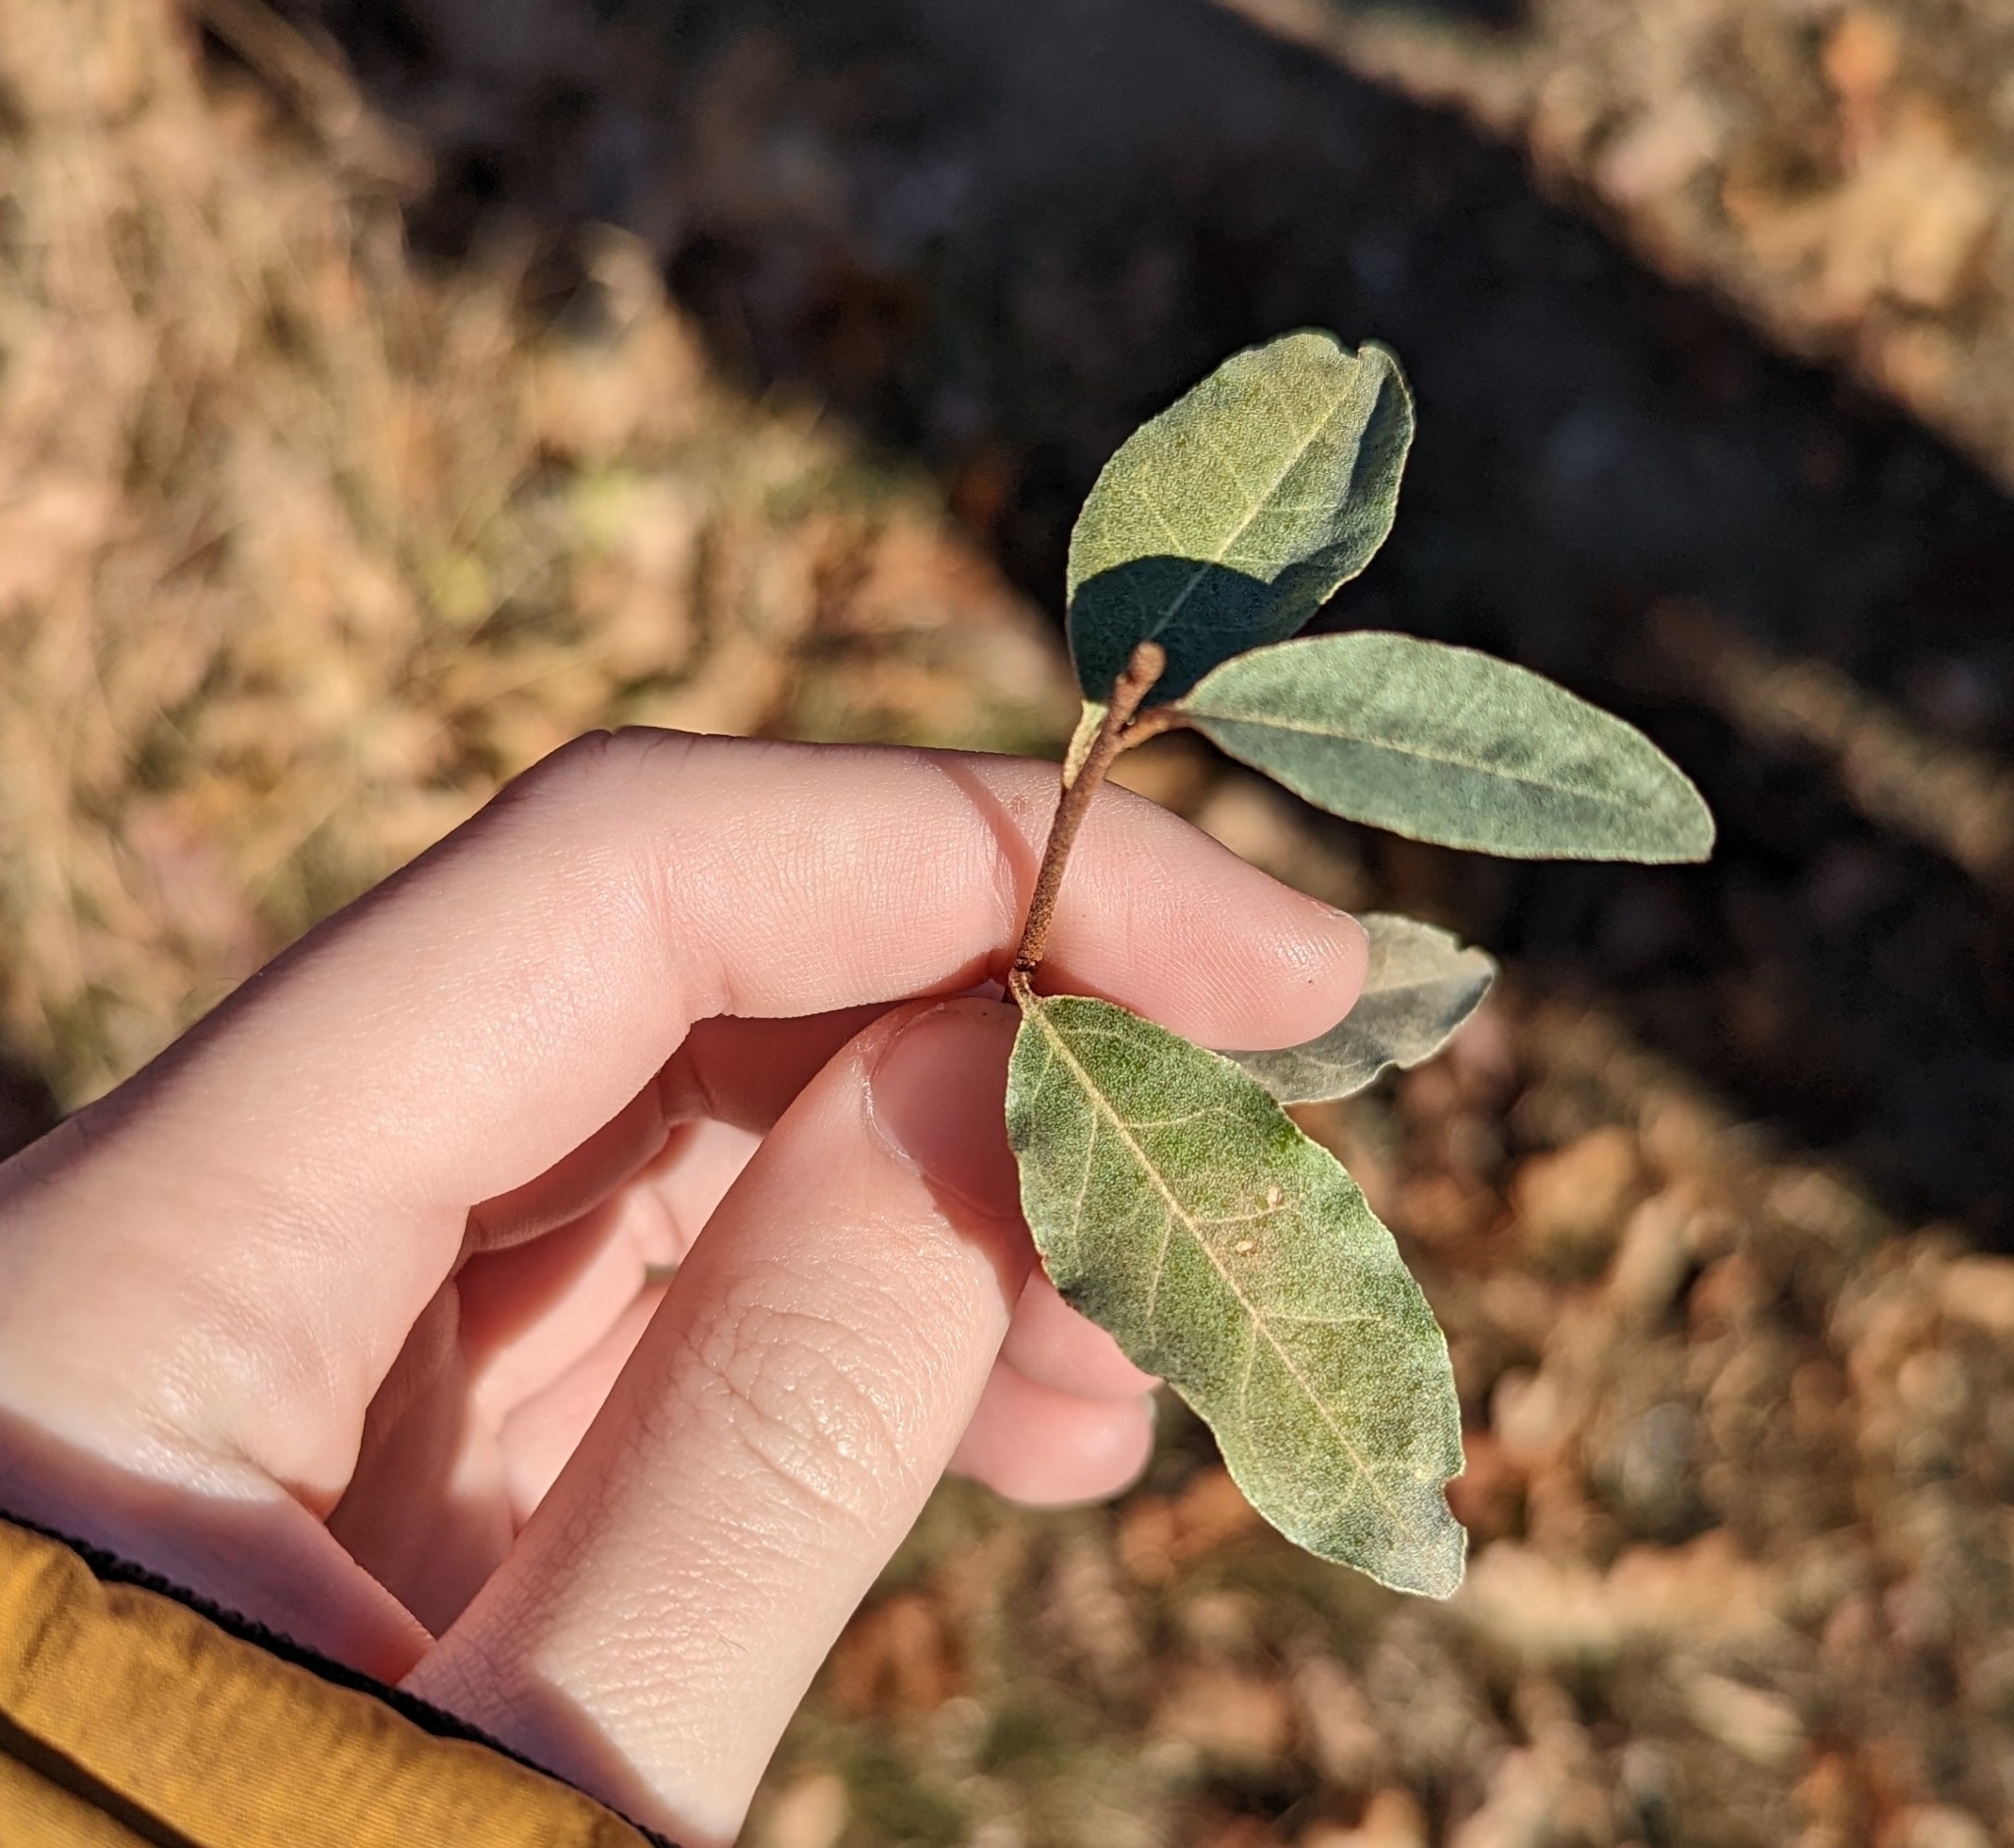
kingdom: Plantae
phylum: Tracheophyta
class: Magnoliopsida
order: Rosales
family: Elaeagnaceae
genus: Elaeagnus
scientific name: Elaeagnus umbellata
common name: Autumn olive
